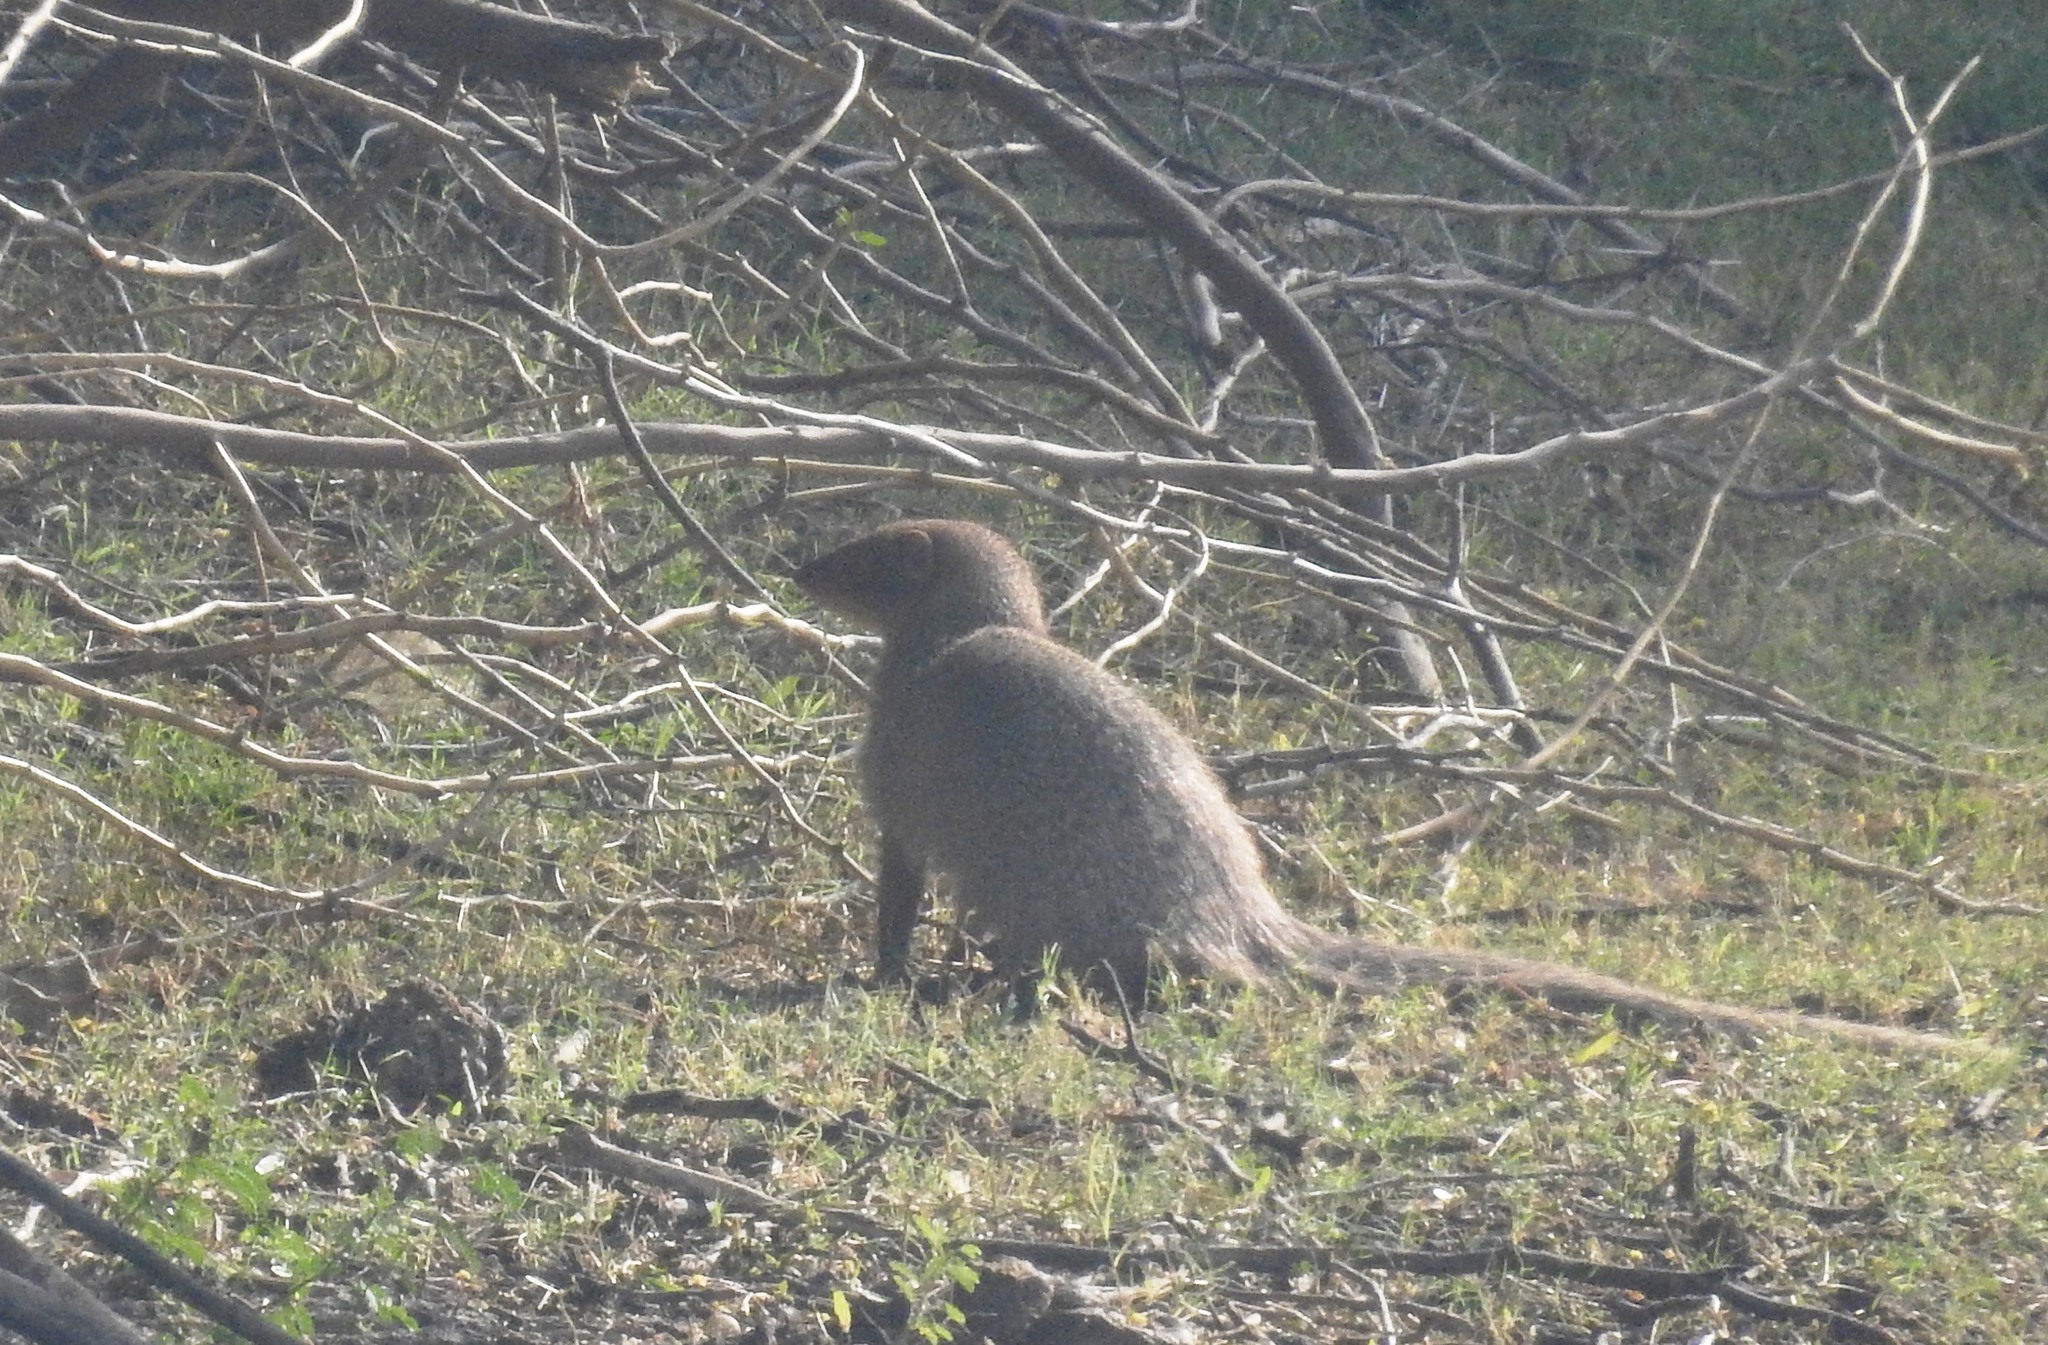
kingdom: Animalia
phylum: Chordata
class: Mammalia
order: Carnivora
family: Herpestidae
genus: Herpestes
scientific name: Herpestes edwardsi
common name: Indian gray mongoose
